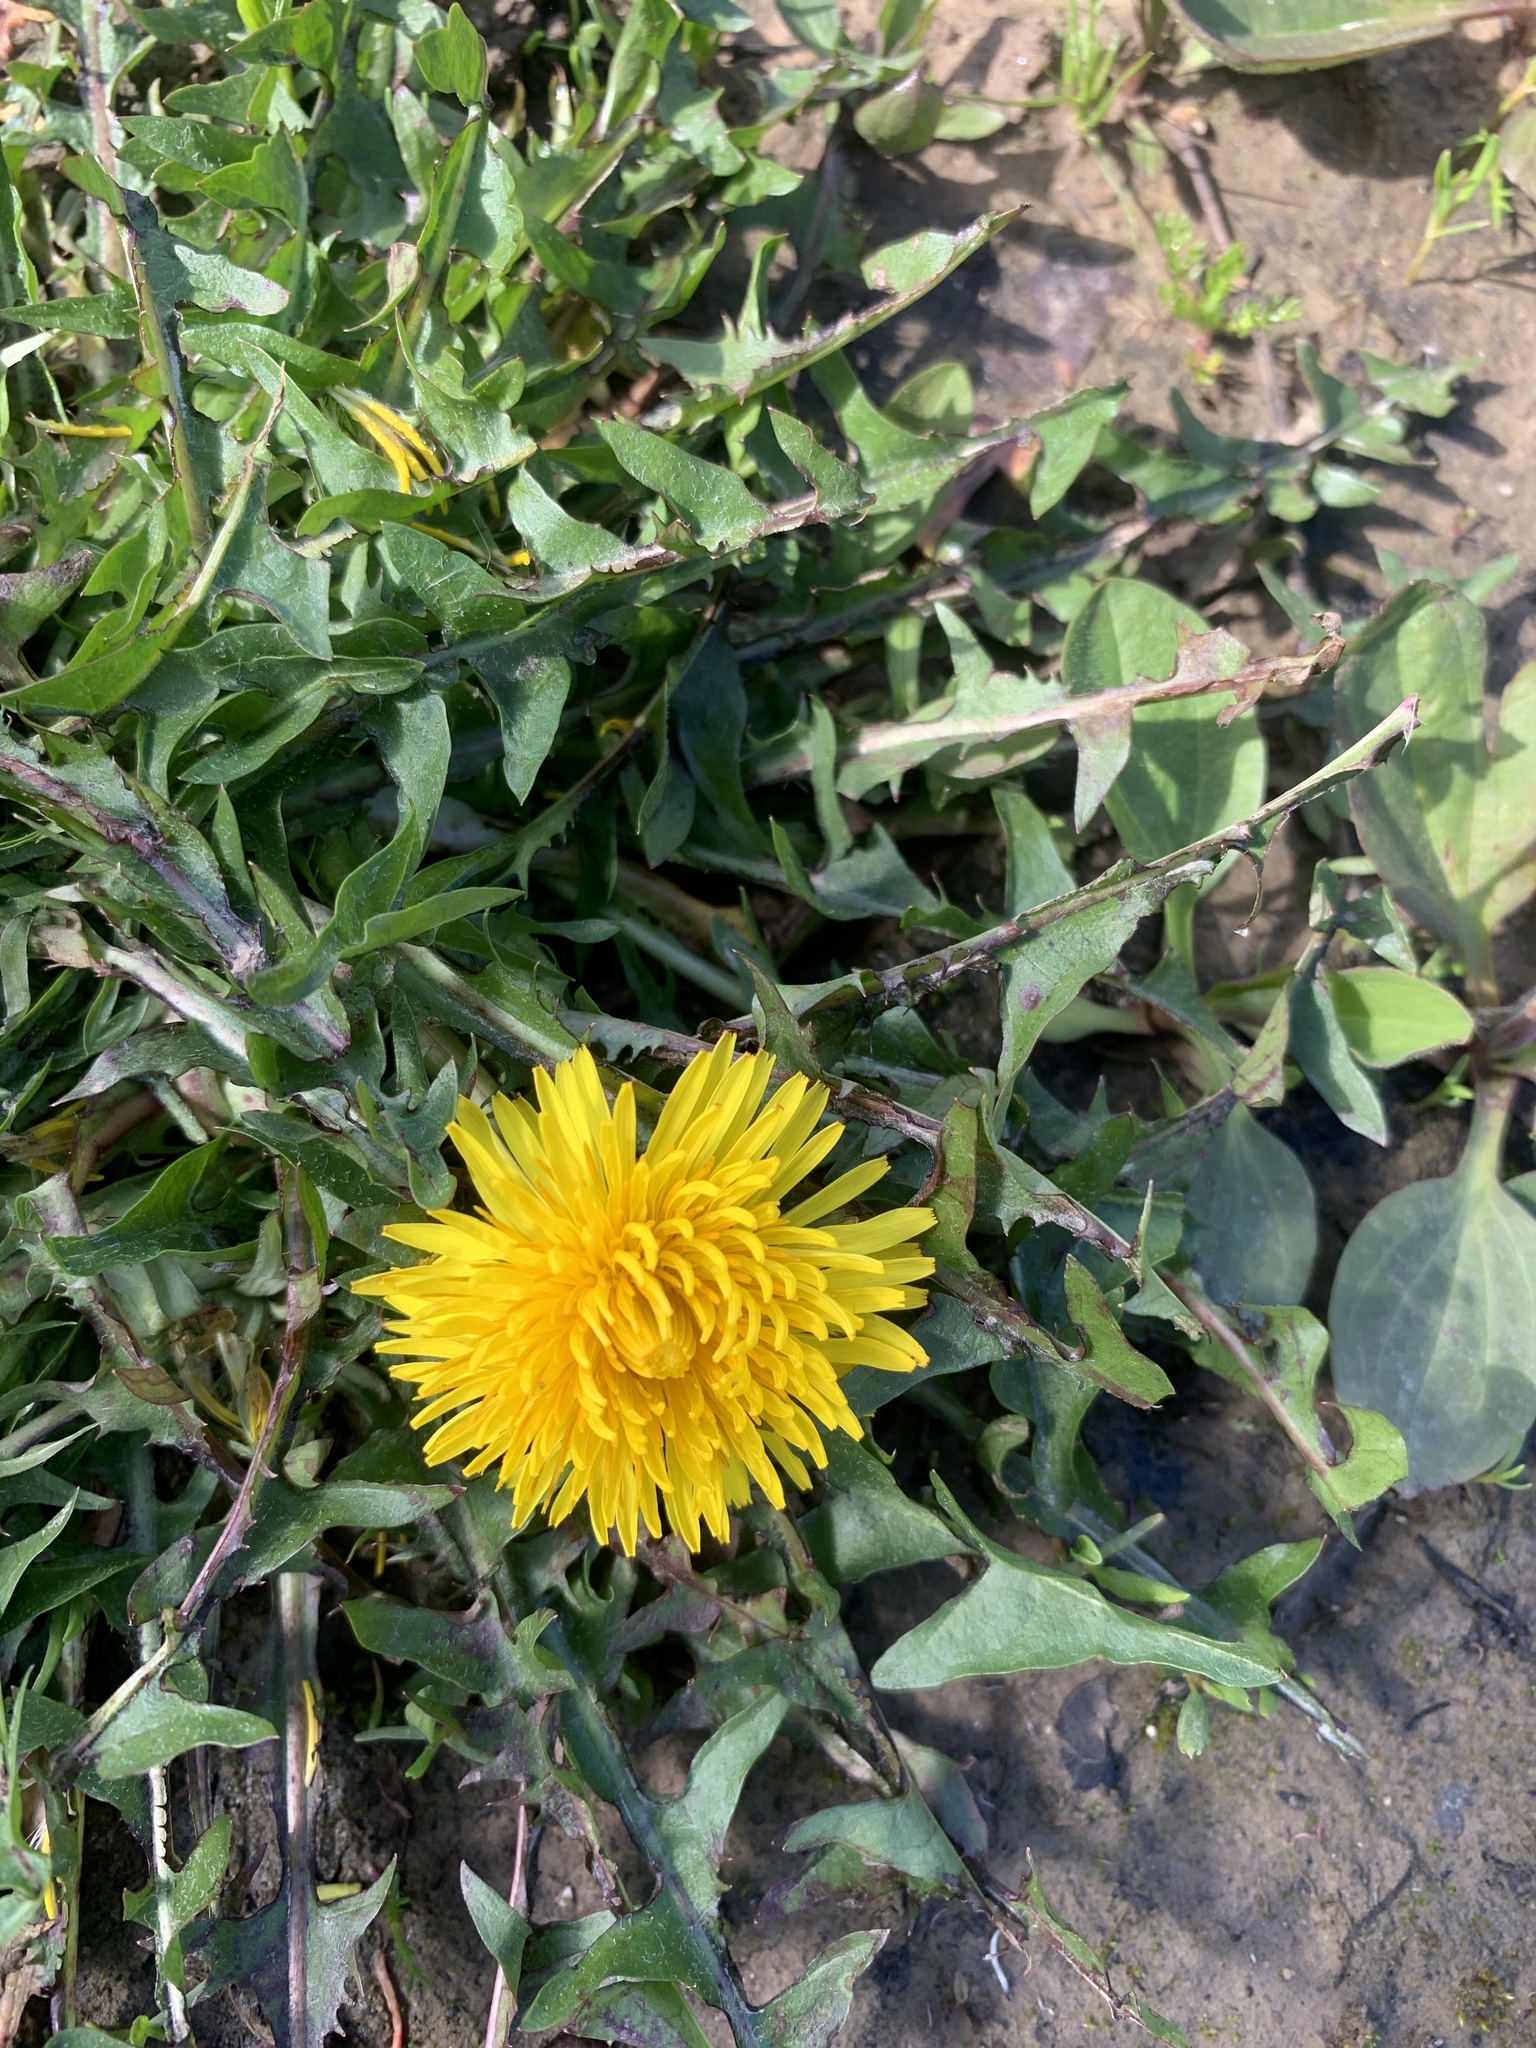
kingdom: Plantae
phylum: Tracheophyta
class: Magnoliopsida
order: Asterales
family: Asteraceae
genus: Taraxacum
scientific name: Taraxacum officinale
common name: Common dandelion
